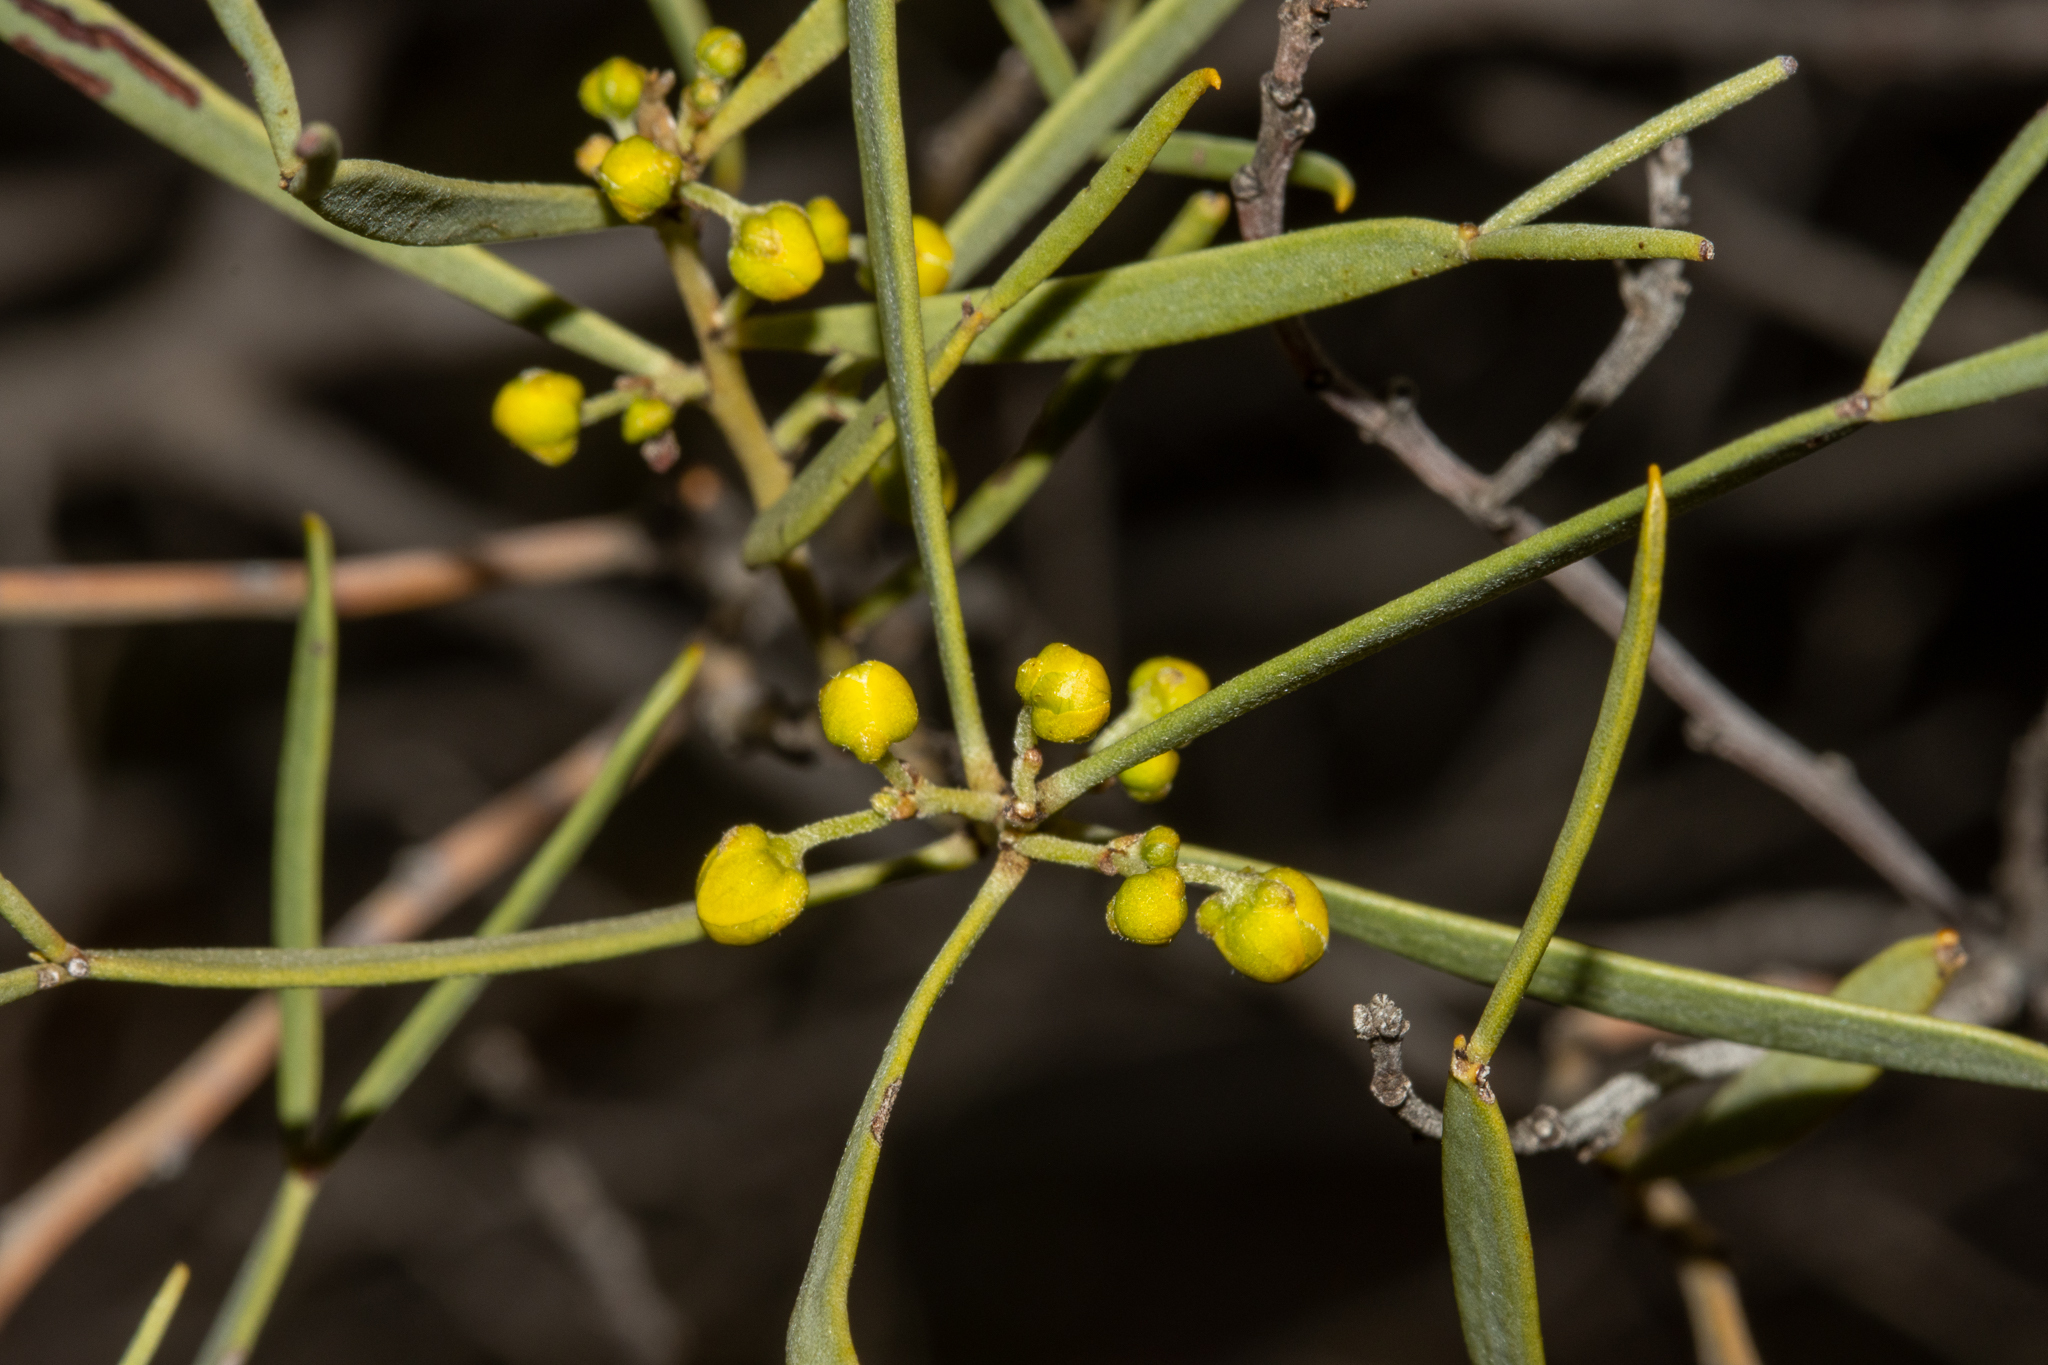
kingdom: Plantae
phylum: Tracheophyta
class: Magnoliopsida
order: Fabales
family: Fabaceae
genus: Senna
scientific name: Senna artemisioides
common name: Burnt-leaved acacia
